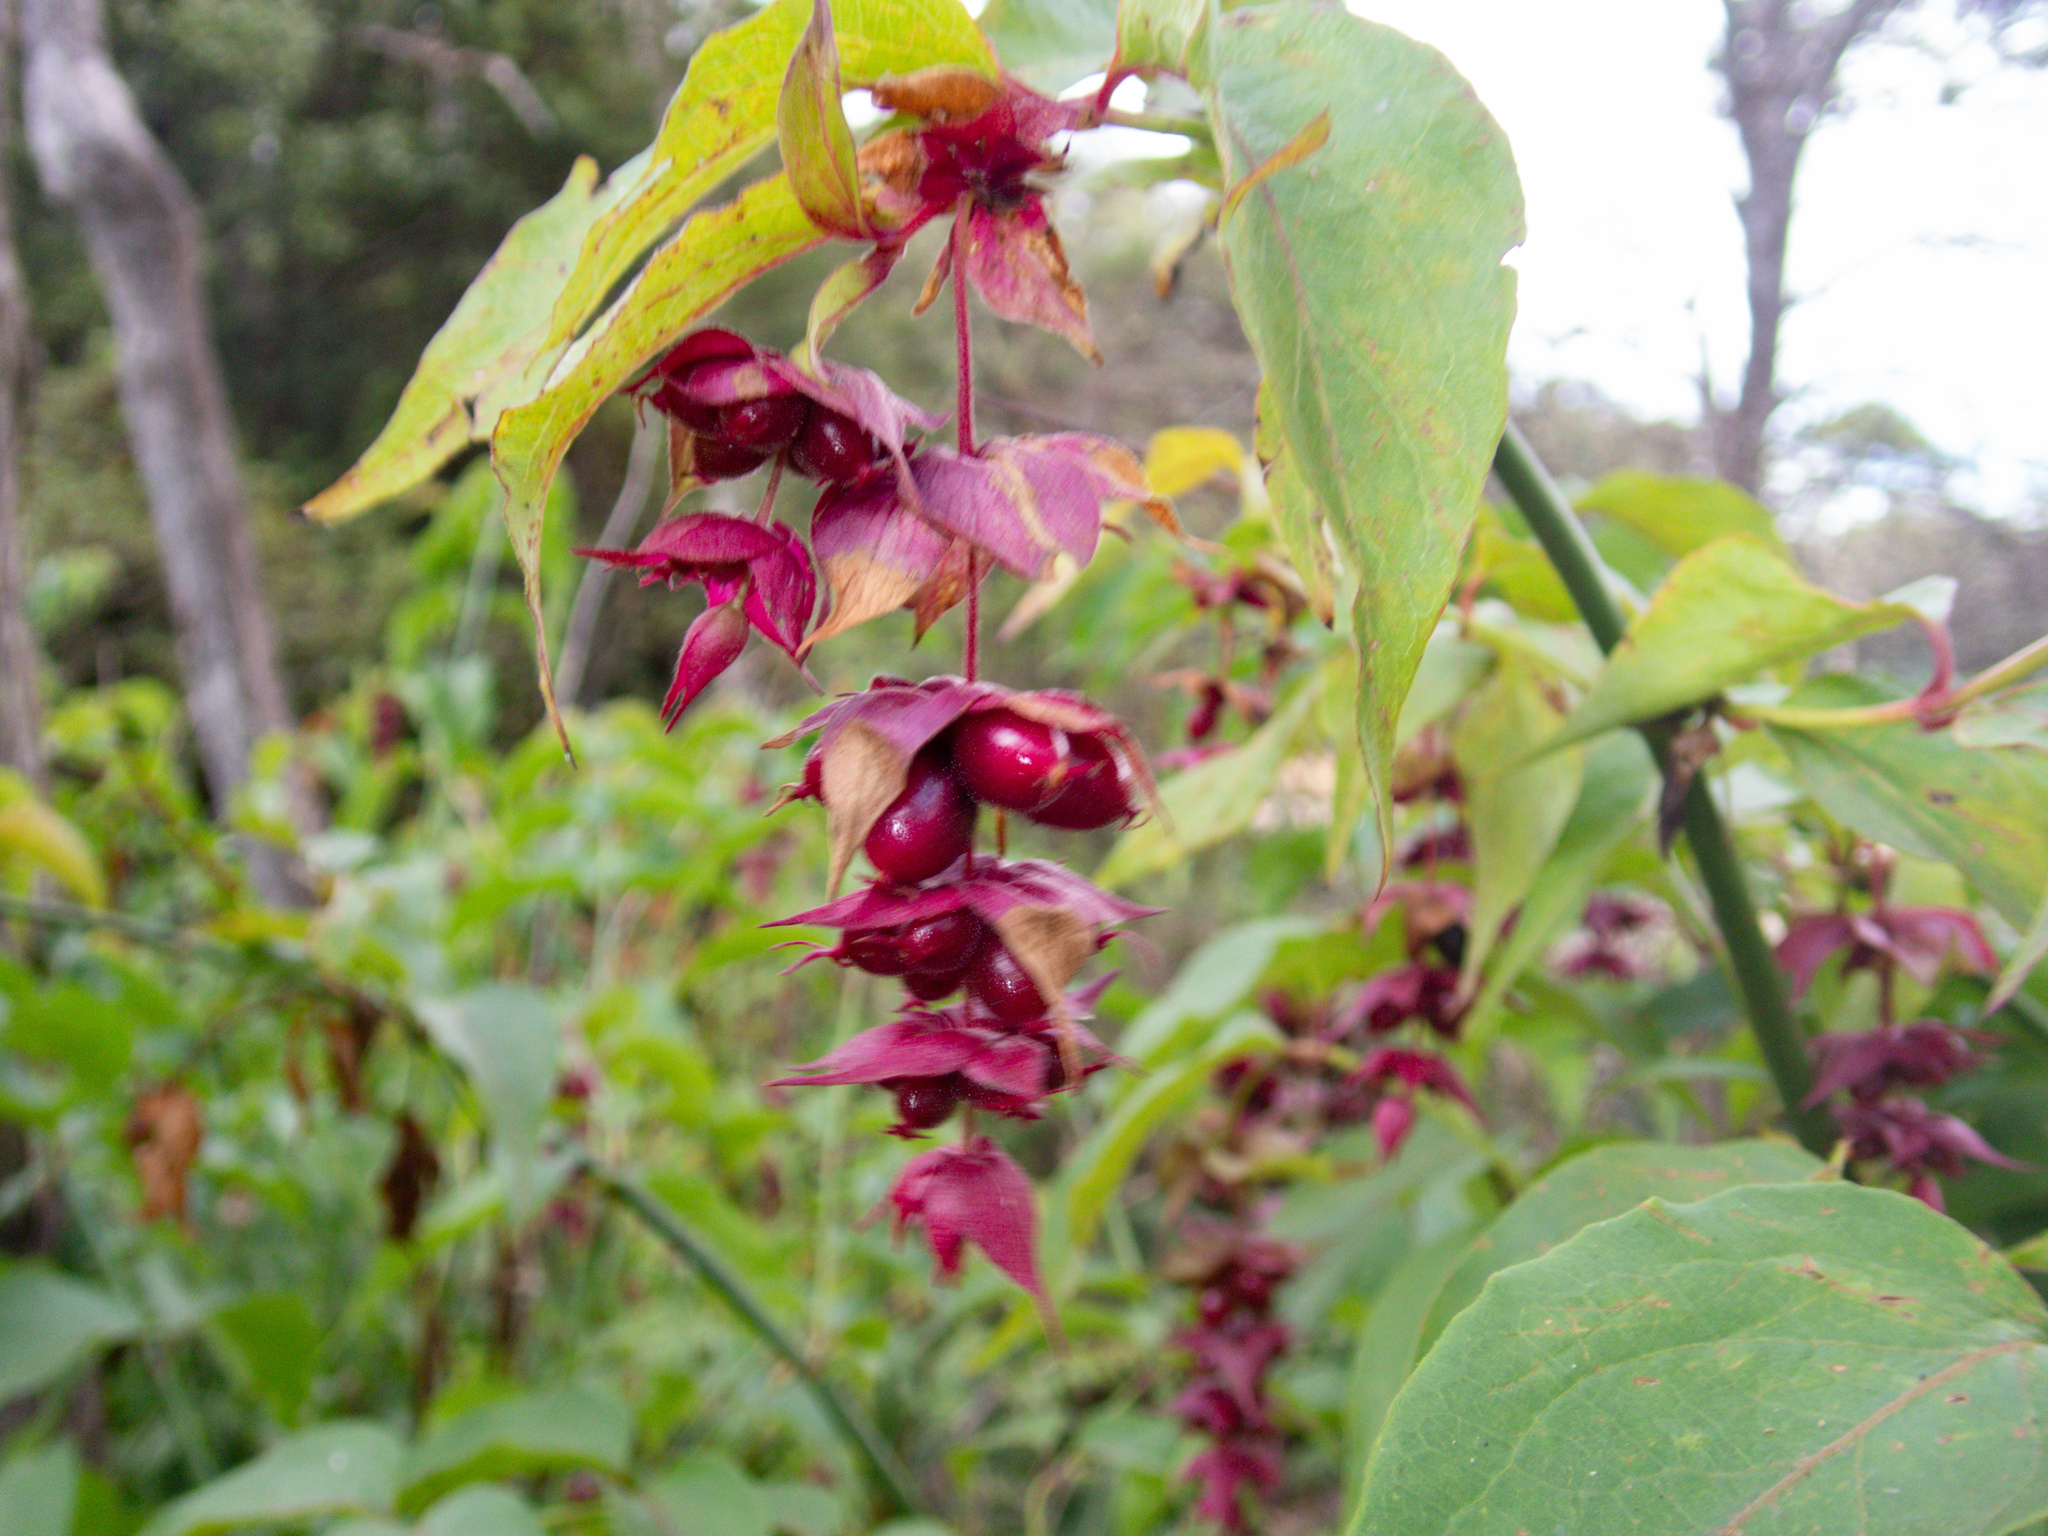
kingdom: Plantae
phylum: Tracheophyta
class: Magnoliopsida
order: Dipsacales
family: Caprifoliaceae
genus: Leycesteria
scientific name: Leycesteria formosa
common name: Himalayan honeysuckle
